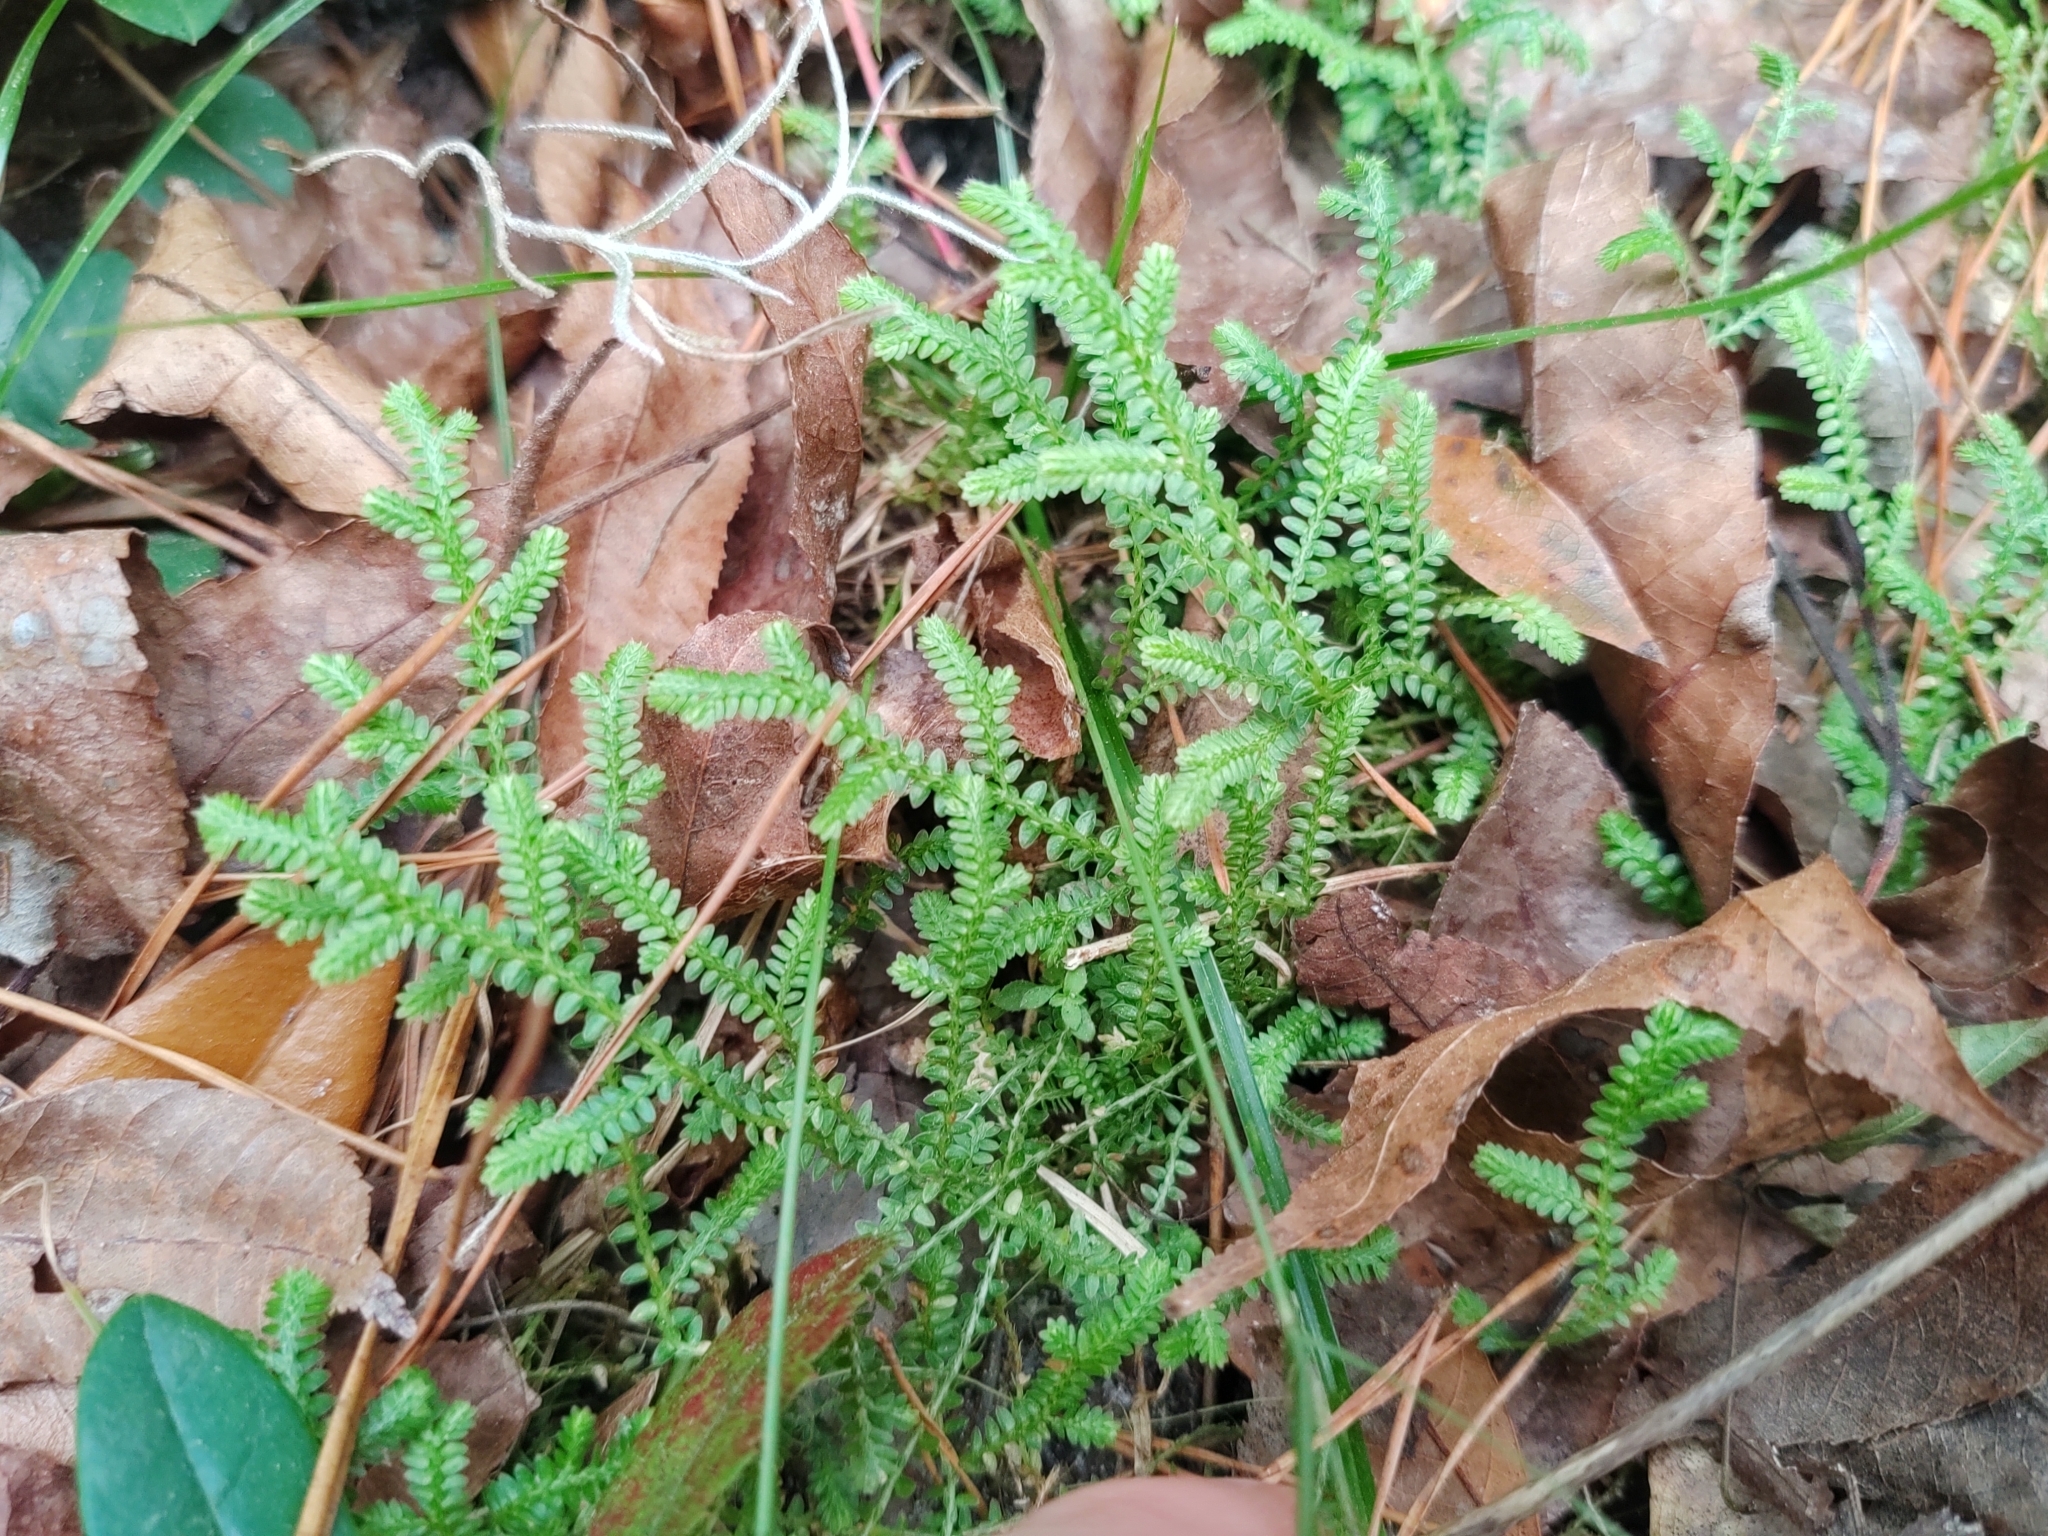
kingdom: Plantae
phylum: Tracheophyta
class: Lycopodiopsida
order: Selaginellales
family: Selaginellaceae
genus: Selaginella
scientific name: Selaginella apoda
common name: Creeping spikemoss
